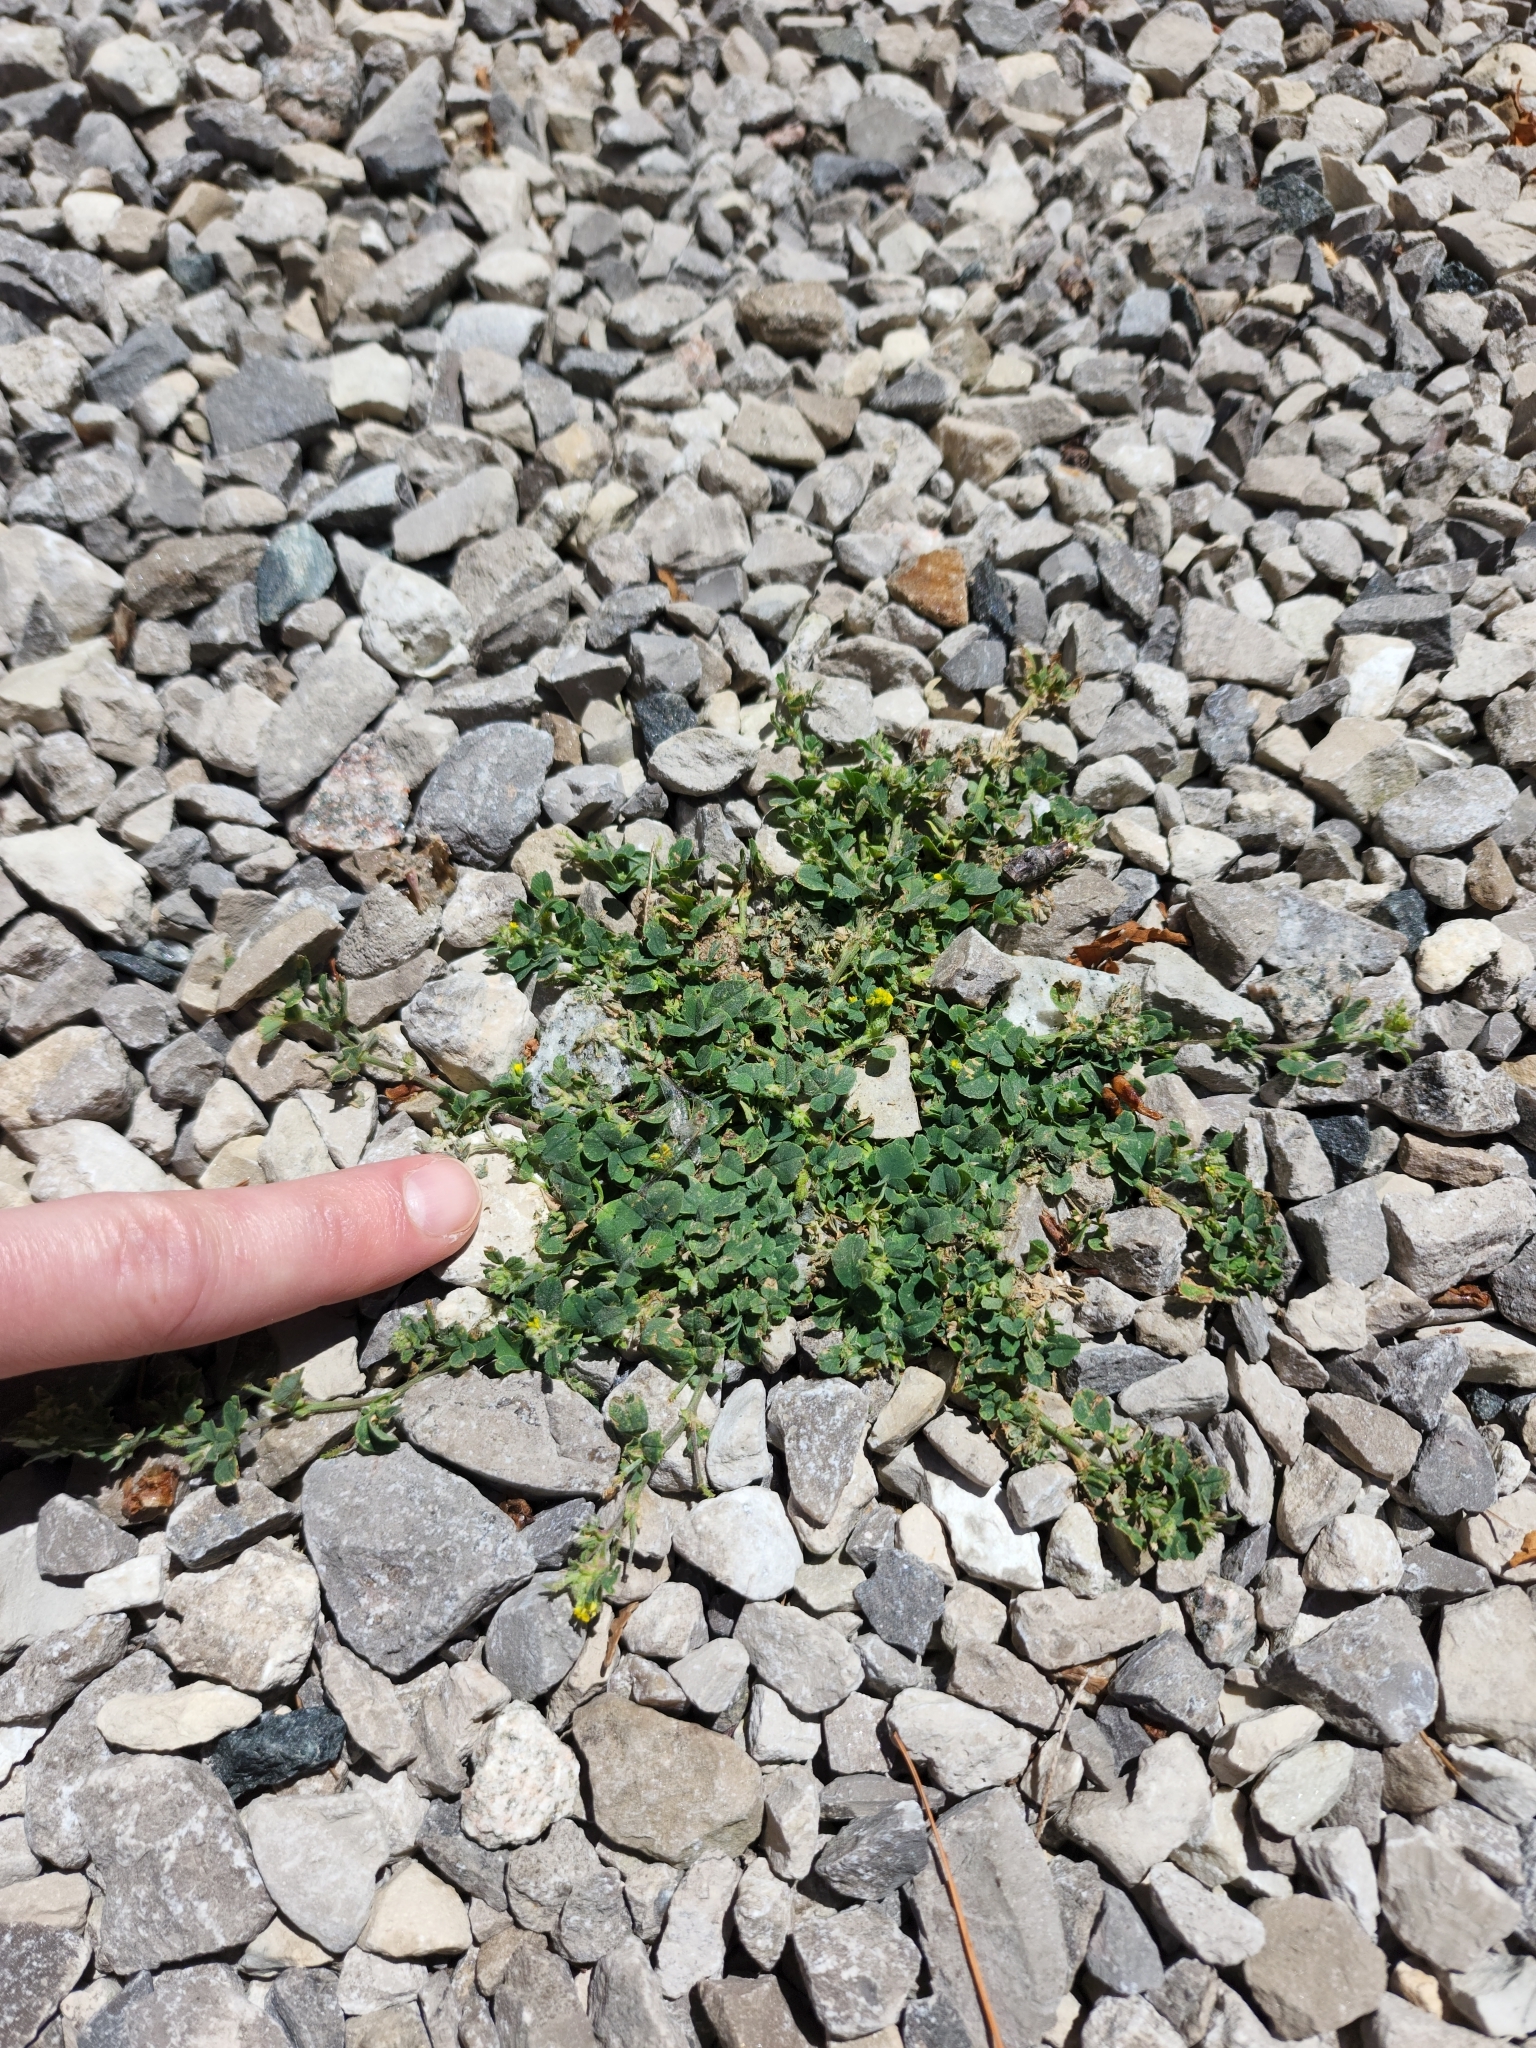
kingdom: Plantae
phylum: Tracheophyta
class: Magnoliopsida
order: Fabales
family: Fabaceae
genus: Medicago
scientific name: Medicago lupulina
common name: Black medick
